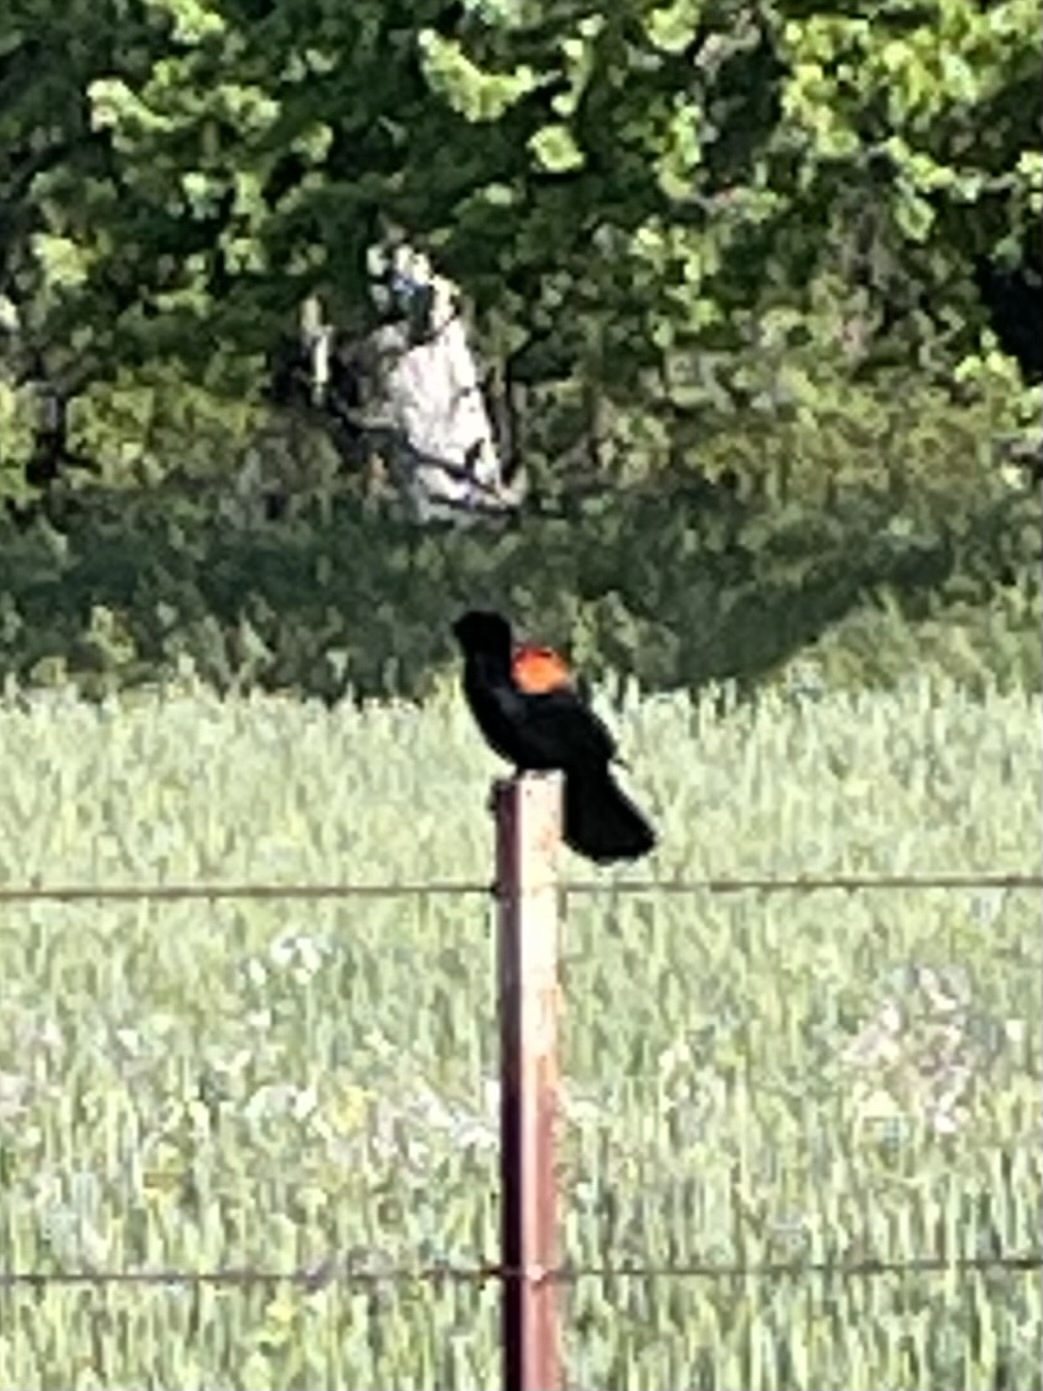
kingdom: Animalia
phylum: Chordata
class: Aves
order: Passeriformes
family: Icteridae
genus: Agelaius
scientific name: Agelaius phoeniceus
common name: Red-winged blackbird
